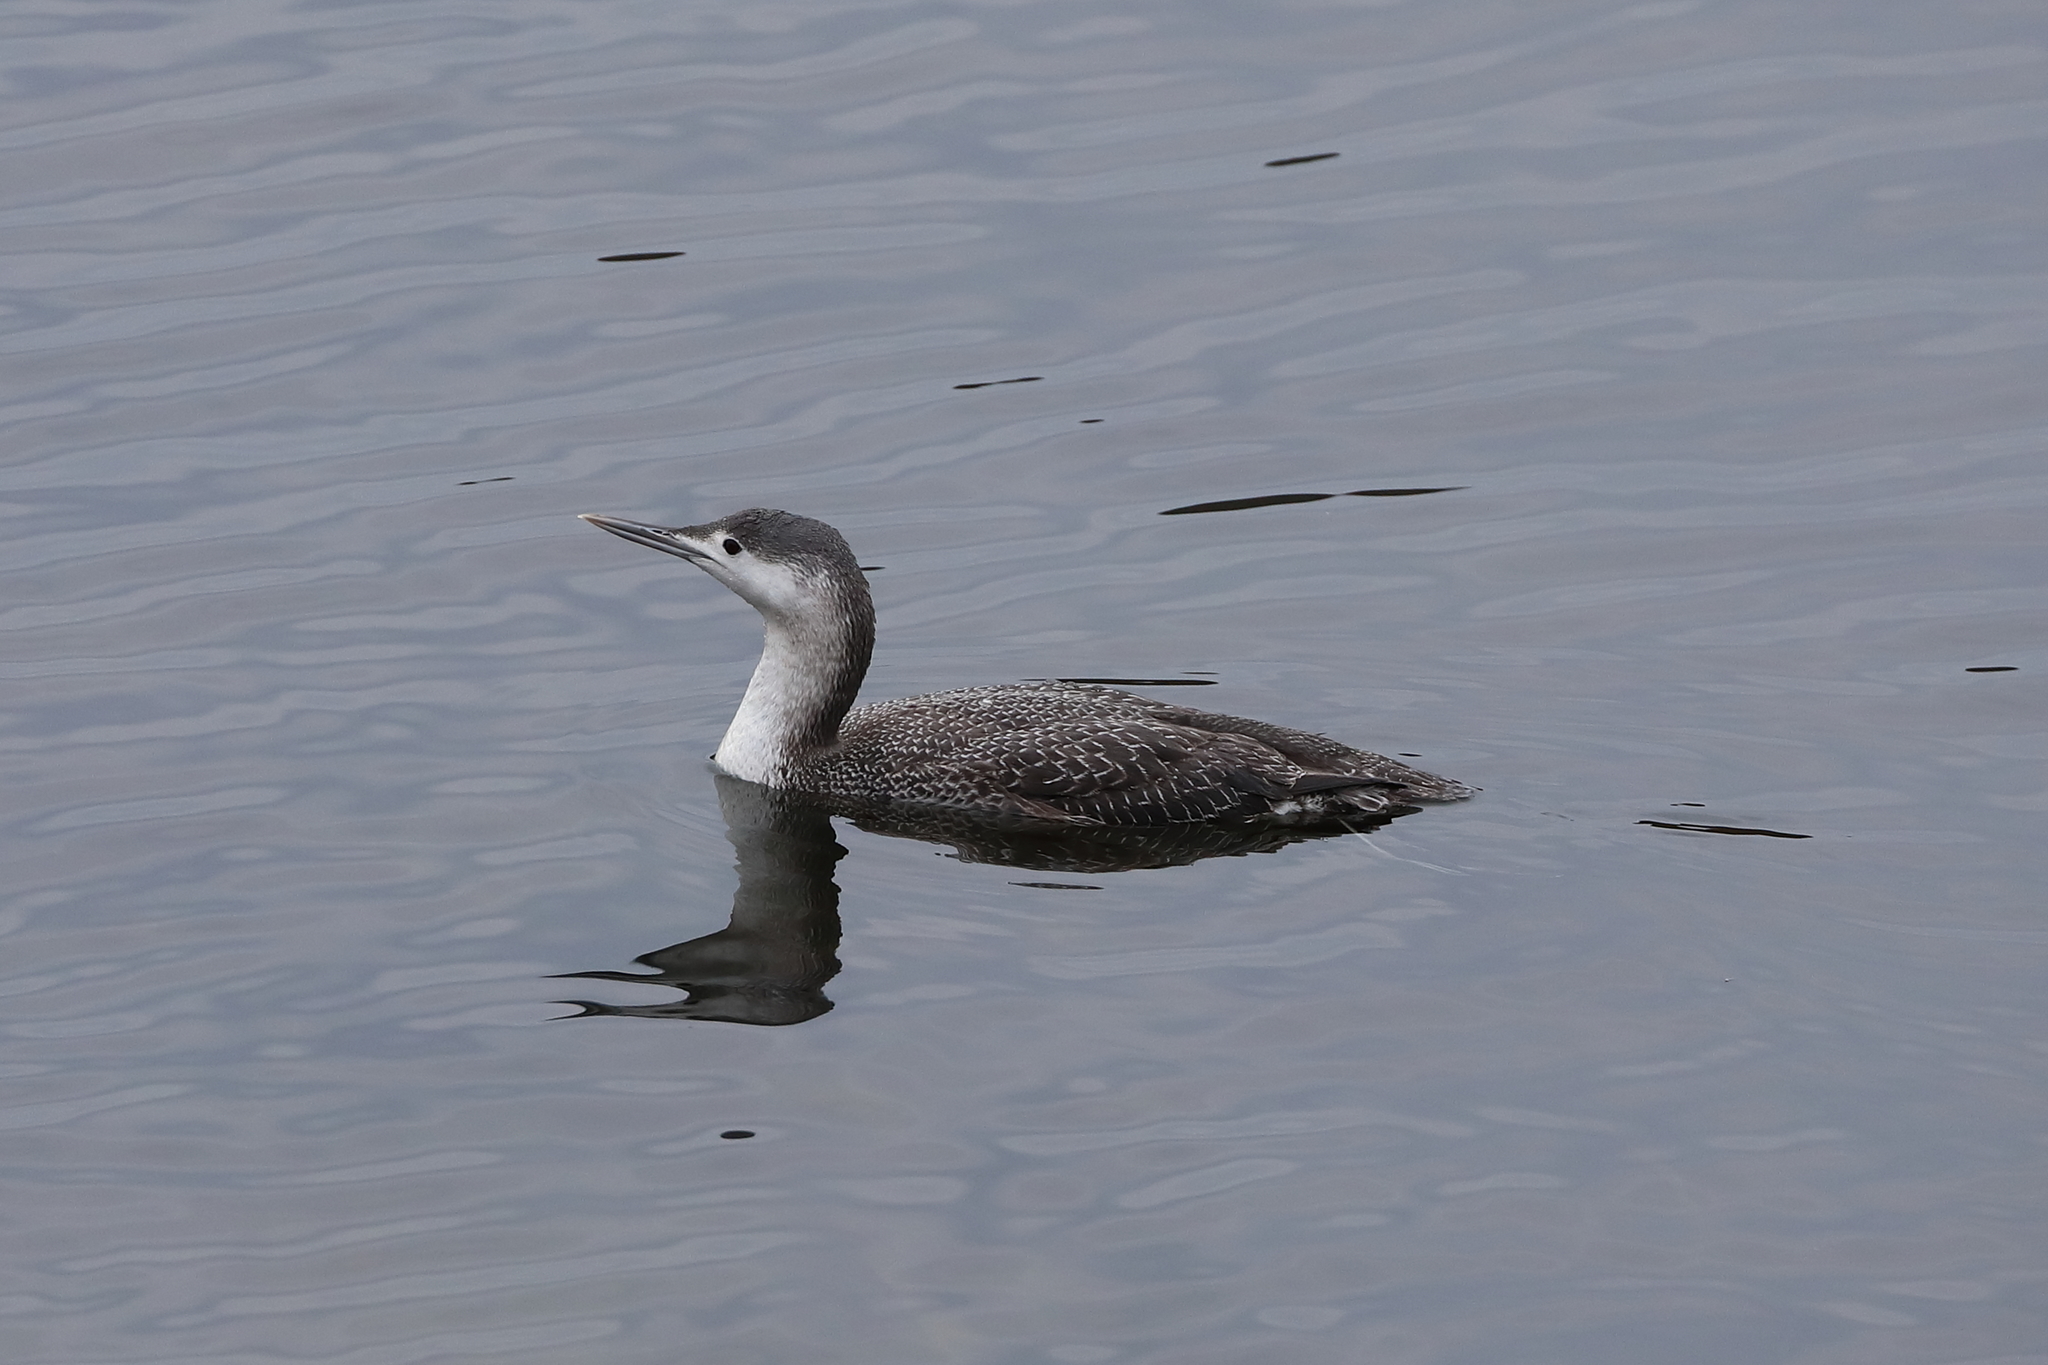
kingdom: Animalia
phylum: Chordata
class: Aves
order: Gaviiformes
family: Gaviidae
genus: Gavia
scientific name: Gavia stellata
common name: Red-throated loon
